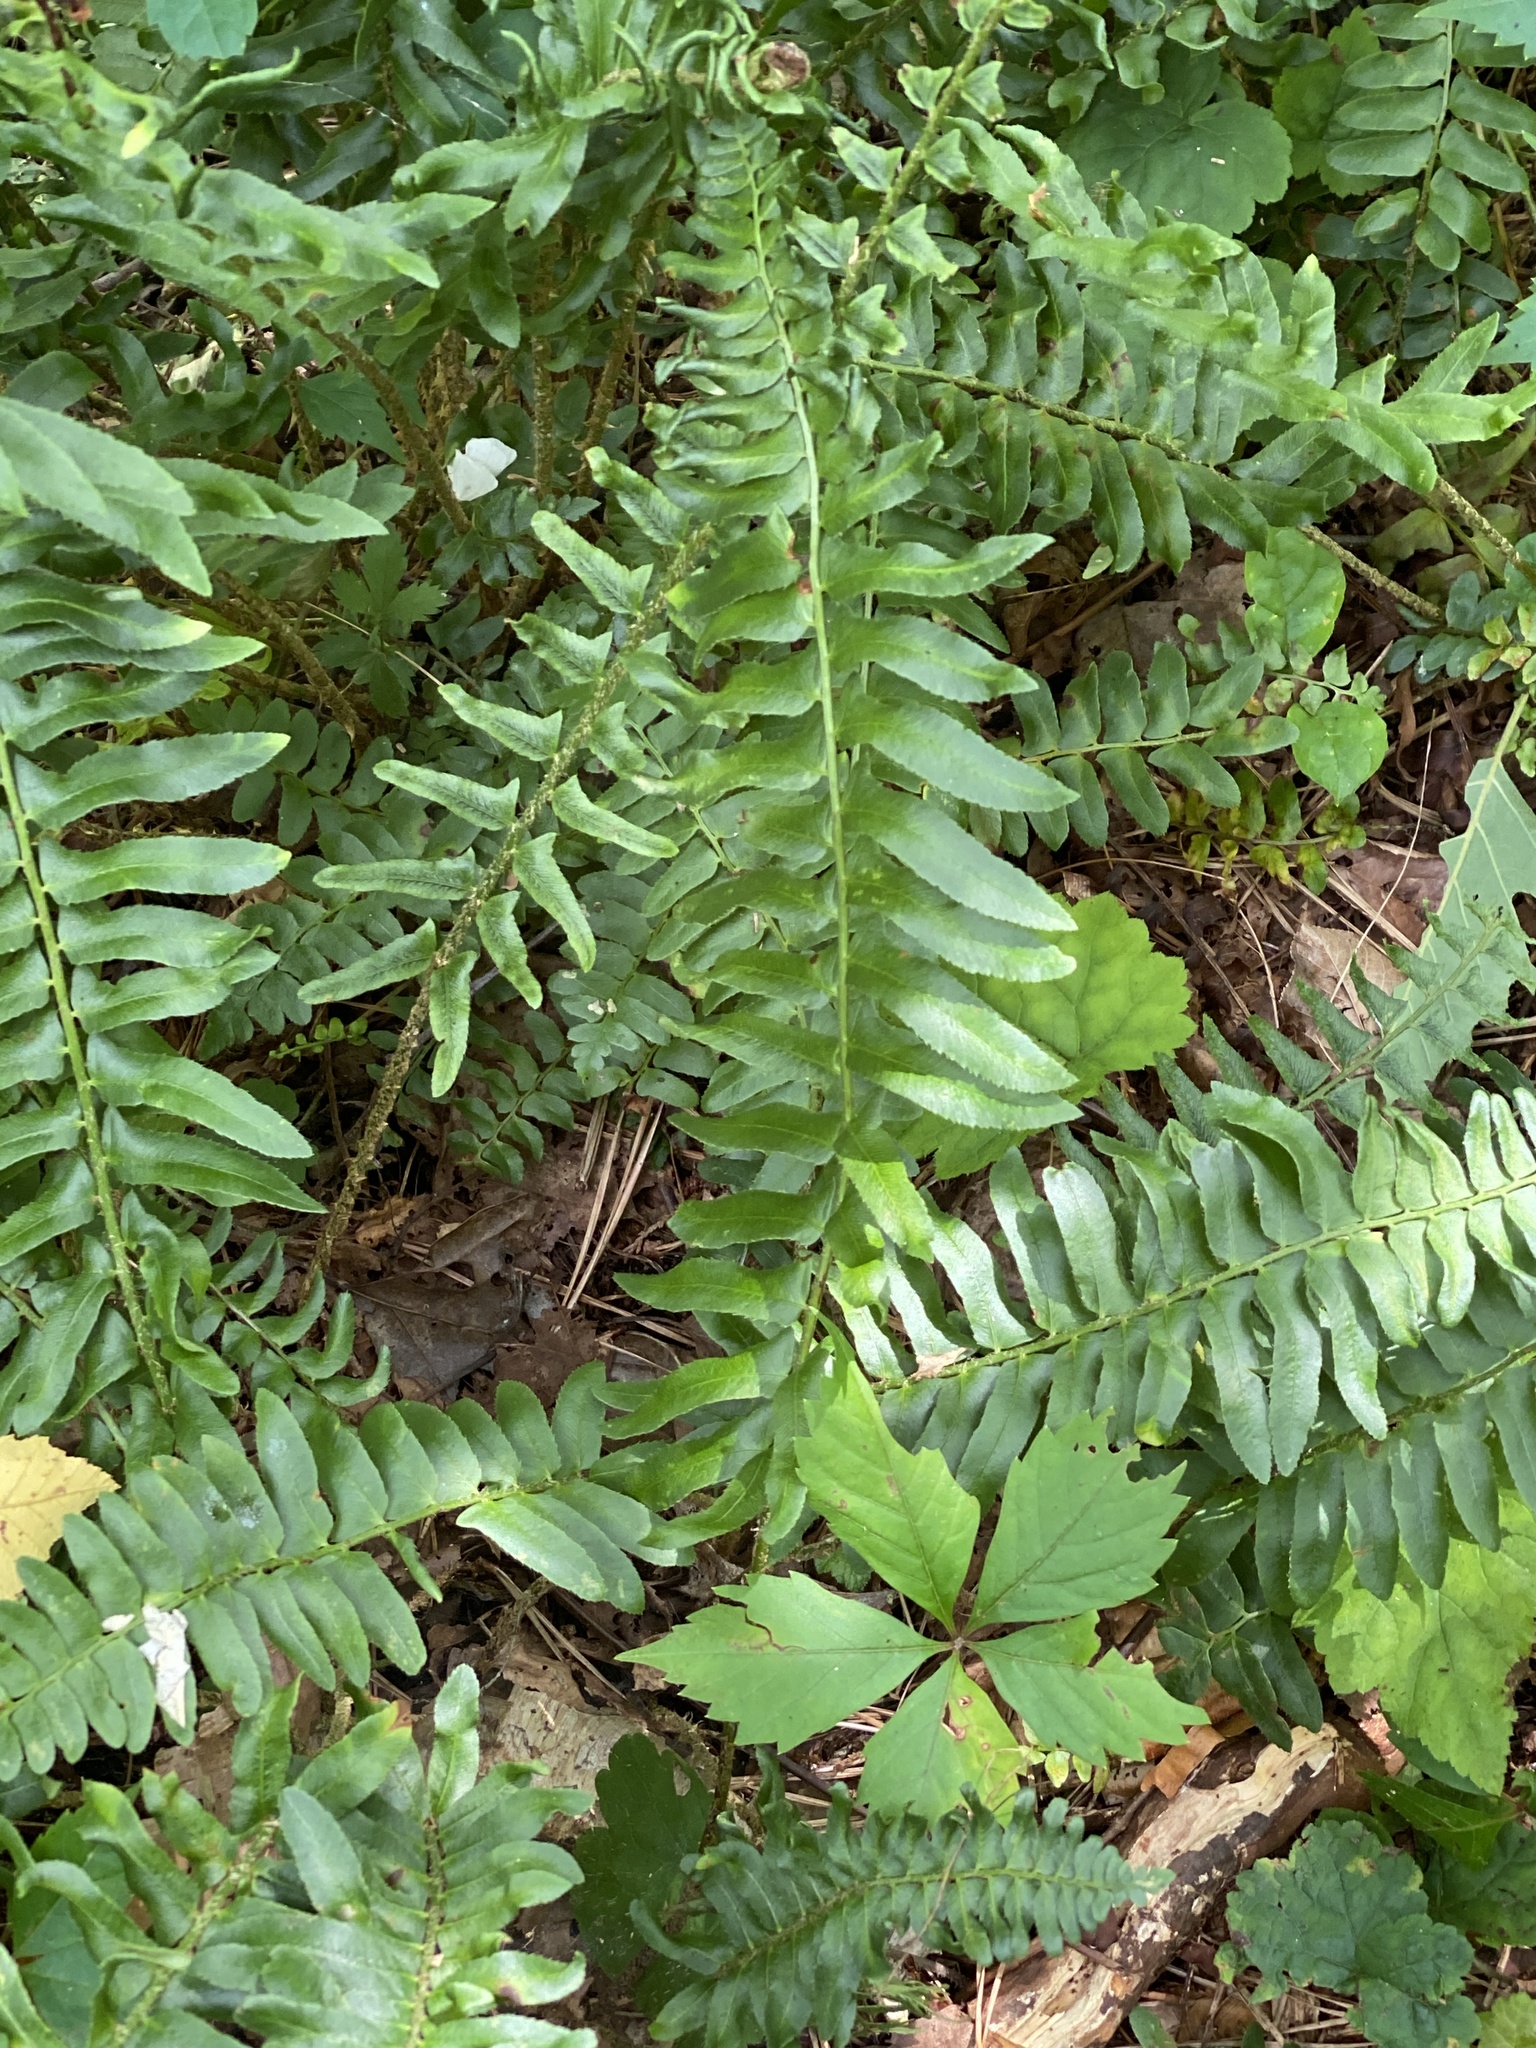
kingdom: Plantae
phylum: Tracheophyta
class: Polypodiopsida
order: Polypodiales
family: Dryopteridaceae
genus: Polystichum
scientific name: Polystichum acrostichoides
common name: Christmas fern
